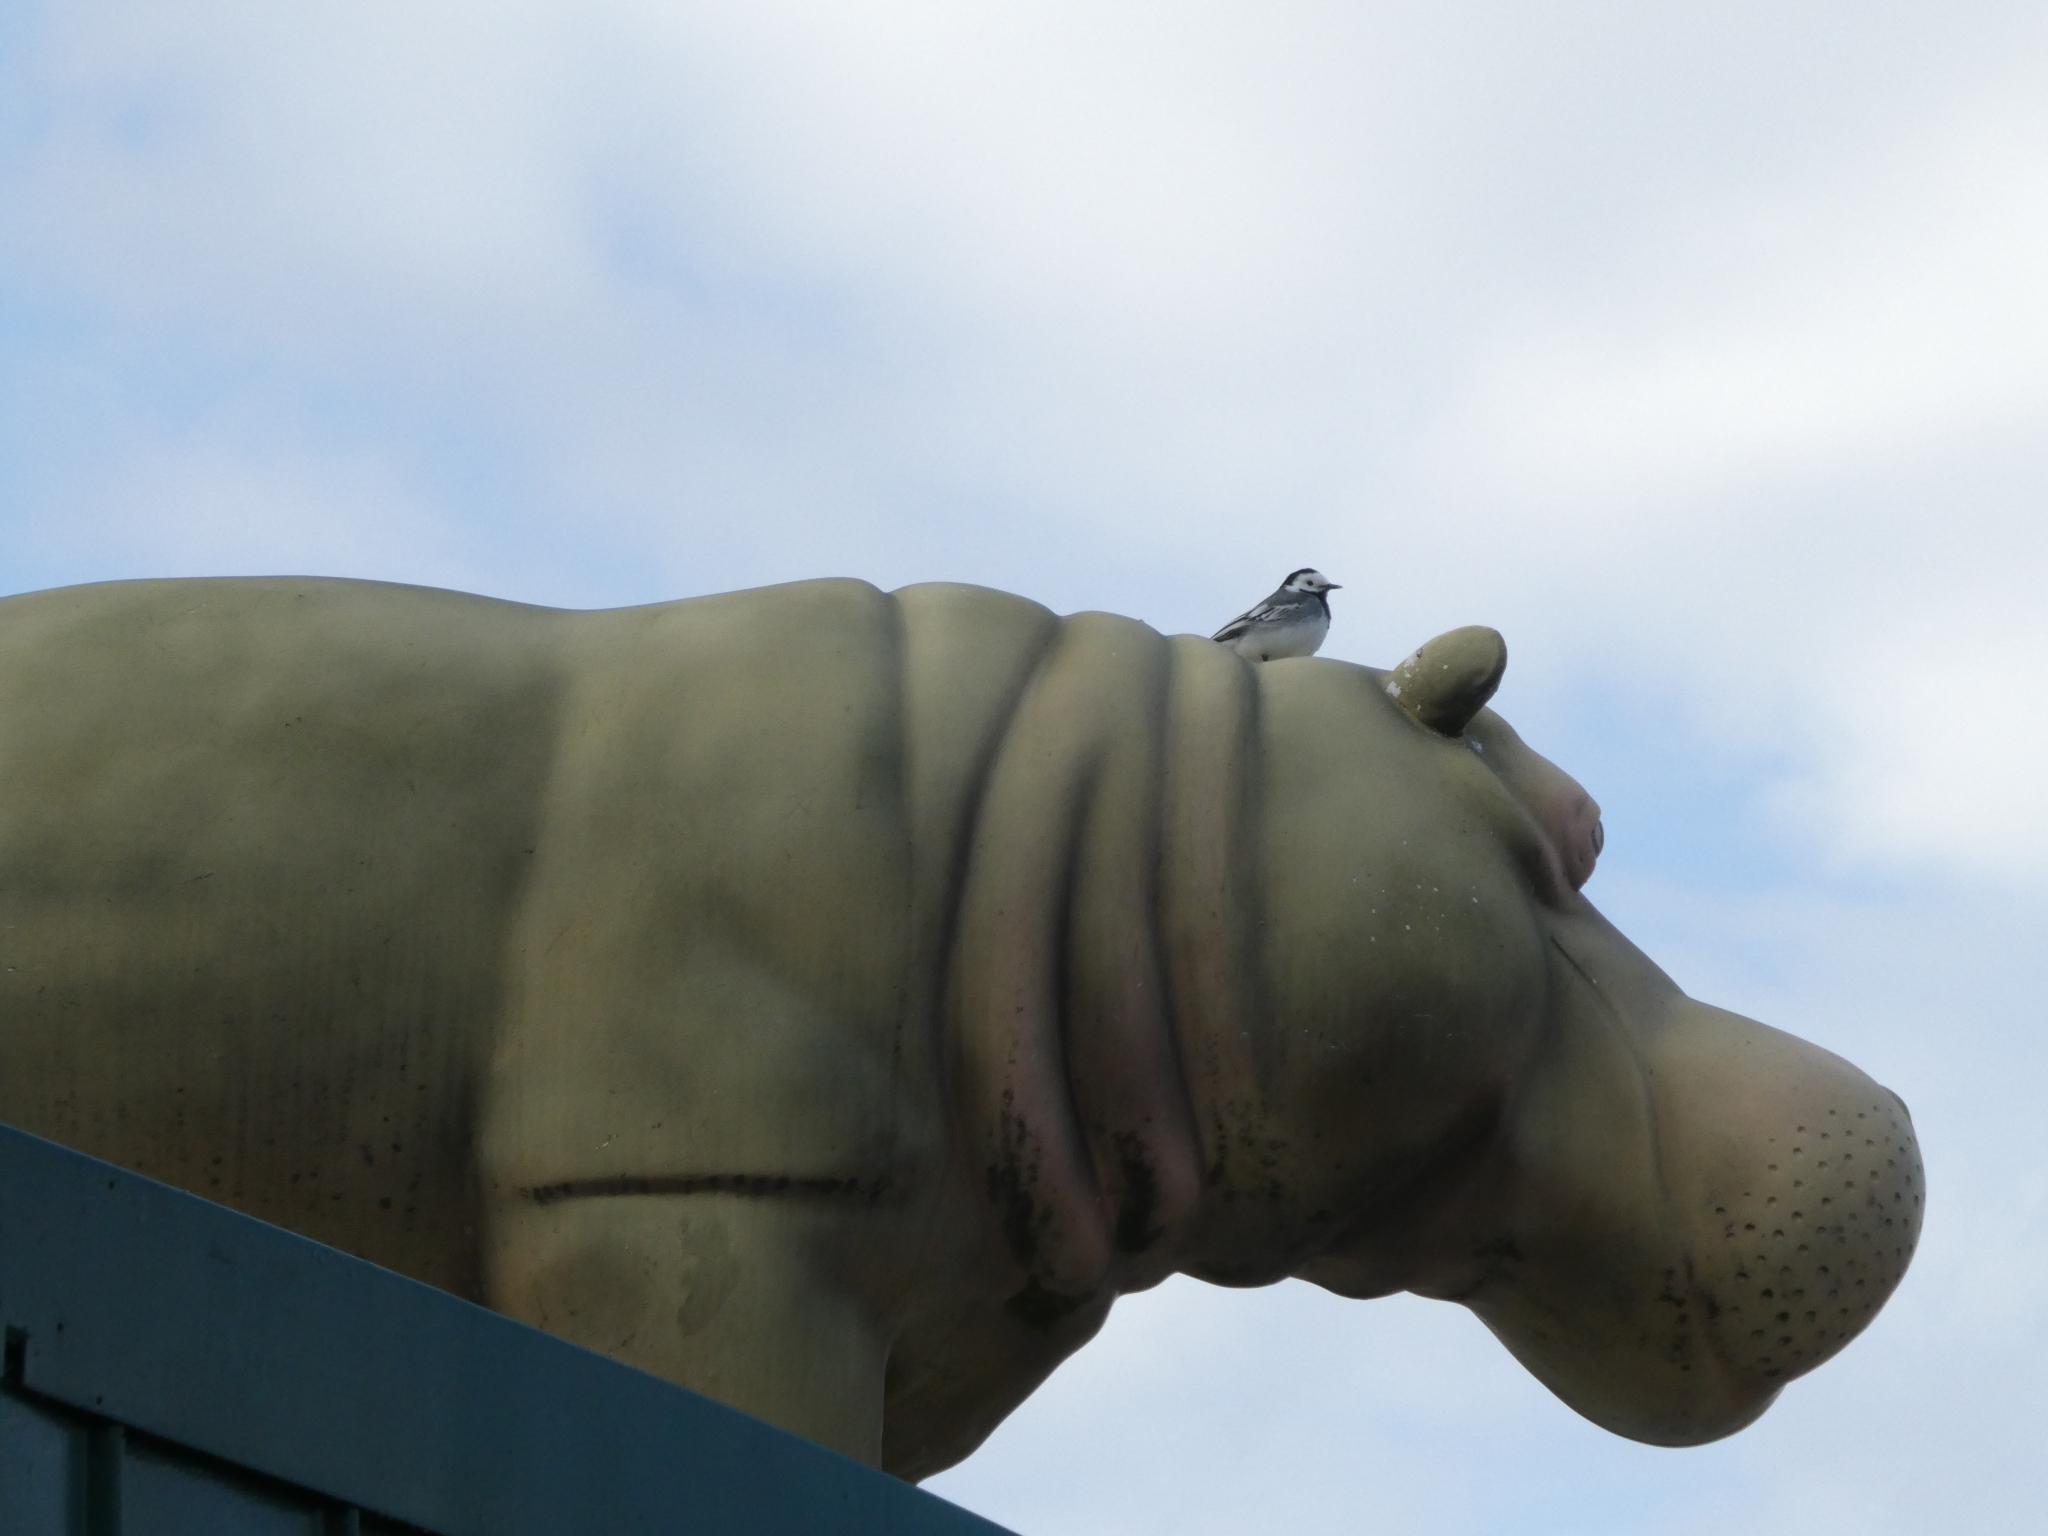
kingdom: Animalia
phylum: Chordata
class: Aves
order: Passeriformes
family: Motacillidae
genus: Motacilla
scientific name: Motacilla alba
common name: White wagtail
